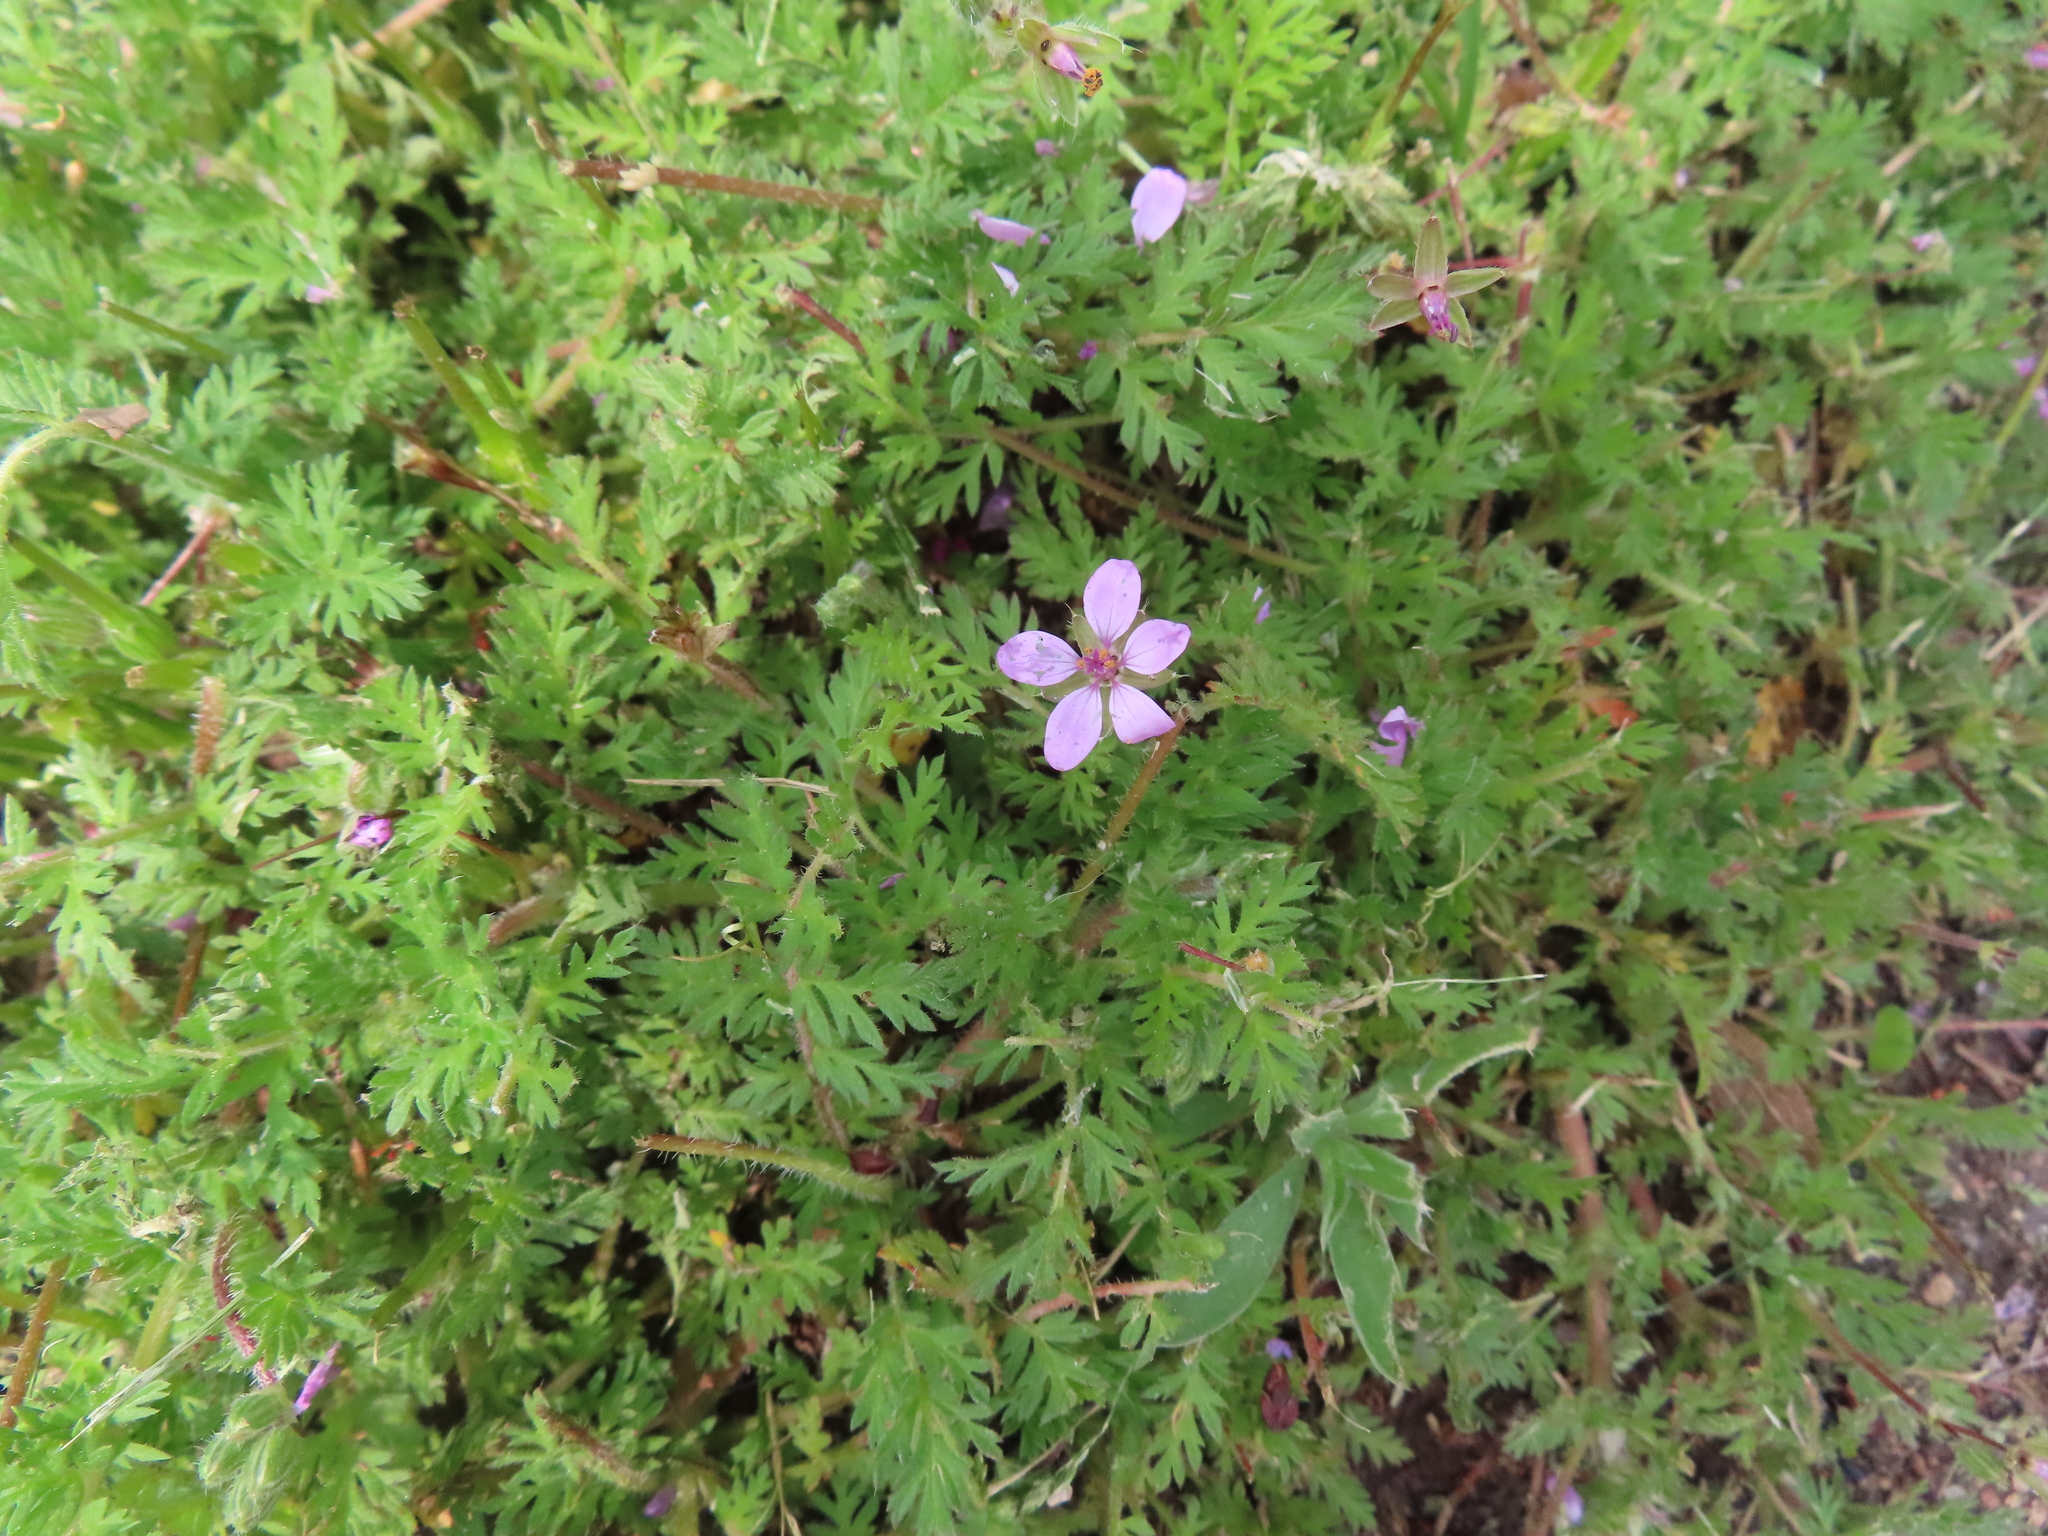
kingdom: Plantae
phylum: Tracheophyta
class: Magnoliopsida
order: Geraniales
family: Geraniaceae
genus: Erodium
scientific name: Erodium cicutarium
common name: Common stork's-bill
